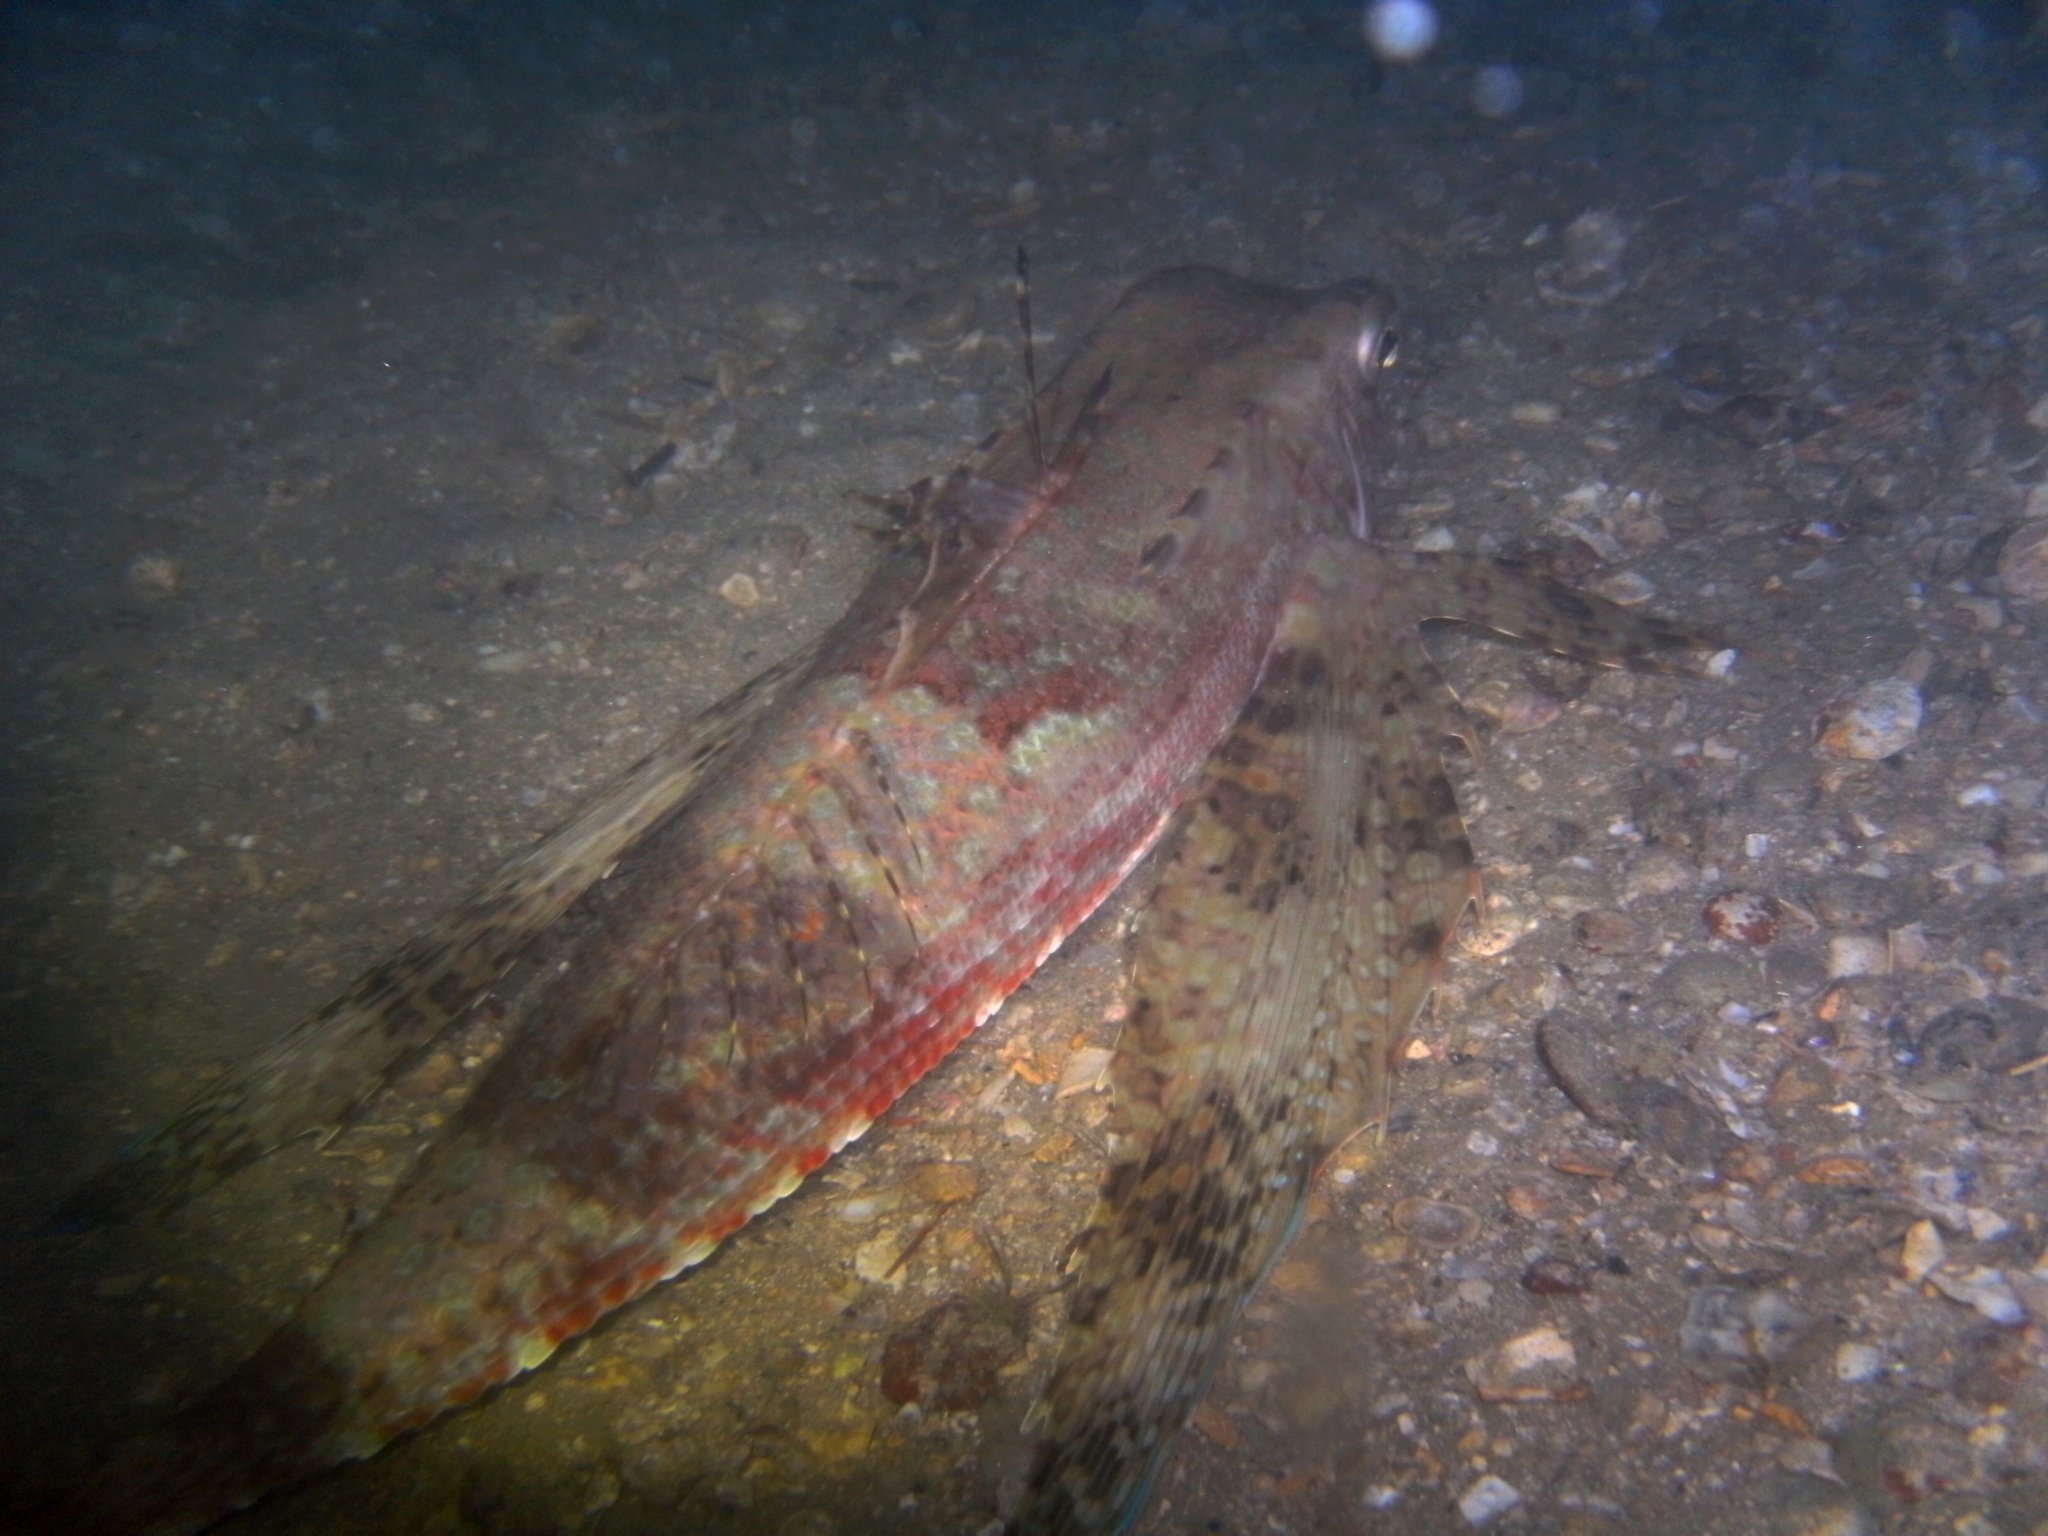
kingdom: Animalia
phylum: Chordata
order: Scorpaeniformes
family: Dactylopteridae
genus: Dactylopterus
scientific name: Dactylopterus volitans
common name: Flying gurnard
